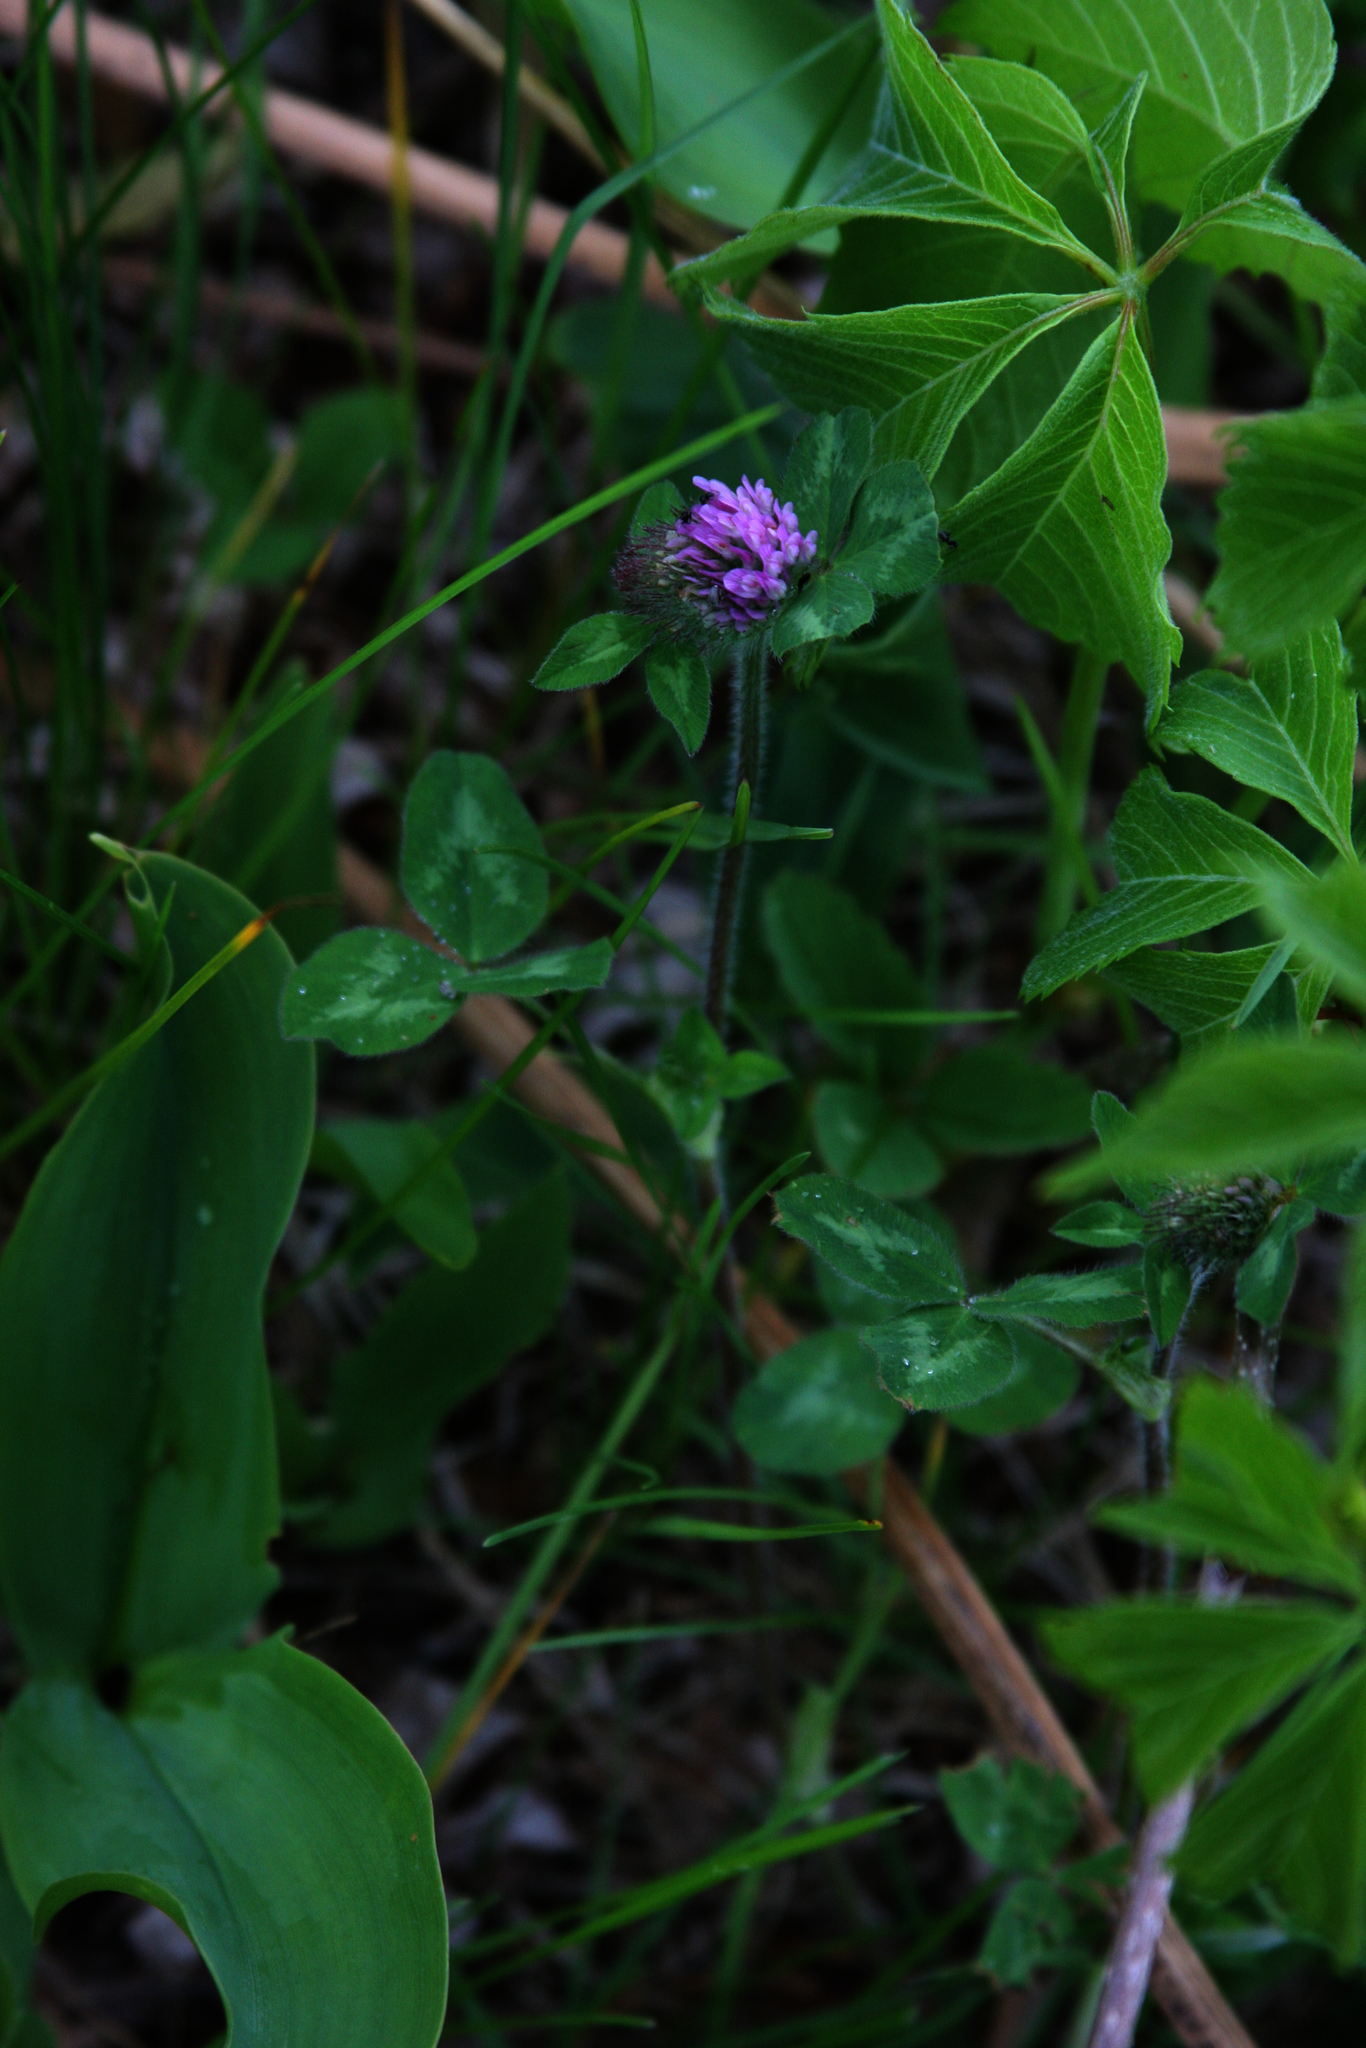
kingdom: Plantae
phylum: Tracheophyta
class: Magnoliopsida
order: Fabales
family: Fabaceae
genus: Trifolium
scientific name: Trifolium pratense
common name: Red clover
